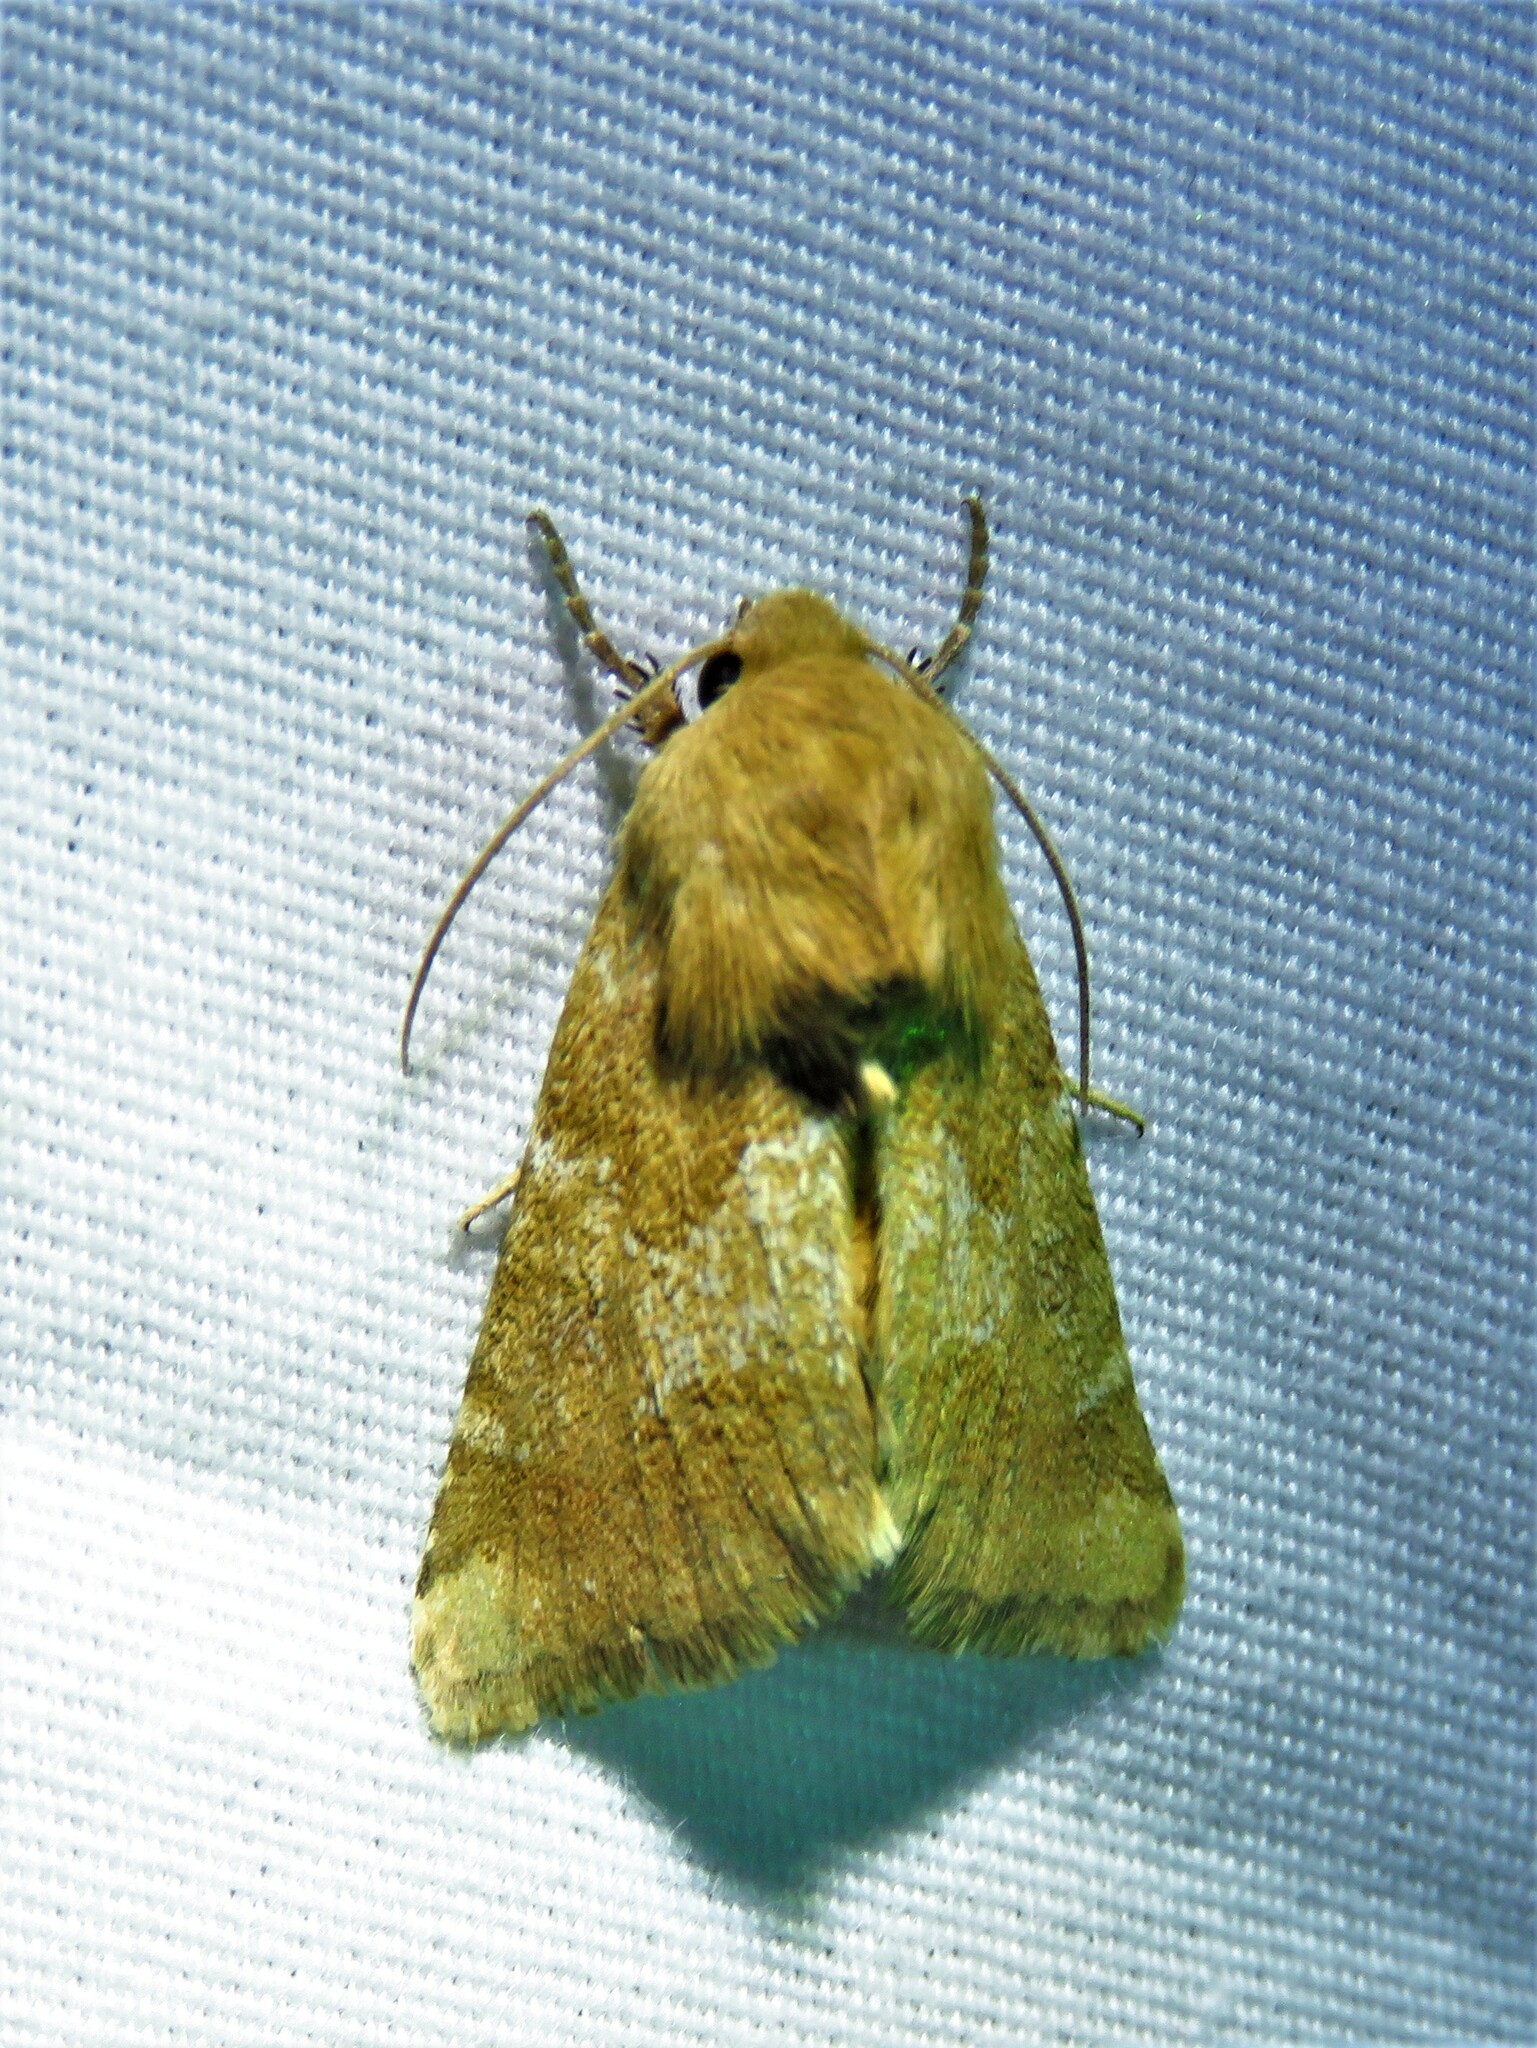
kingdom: Animalia
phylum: Arthropoda
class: Insecta
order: Lepidoptera
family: Noctuidae
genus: Schinia
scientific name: Schinia mortua
